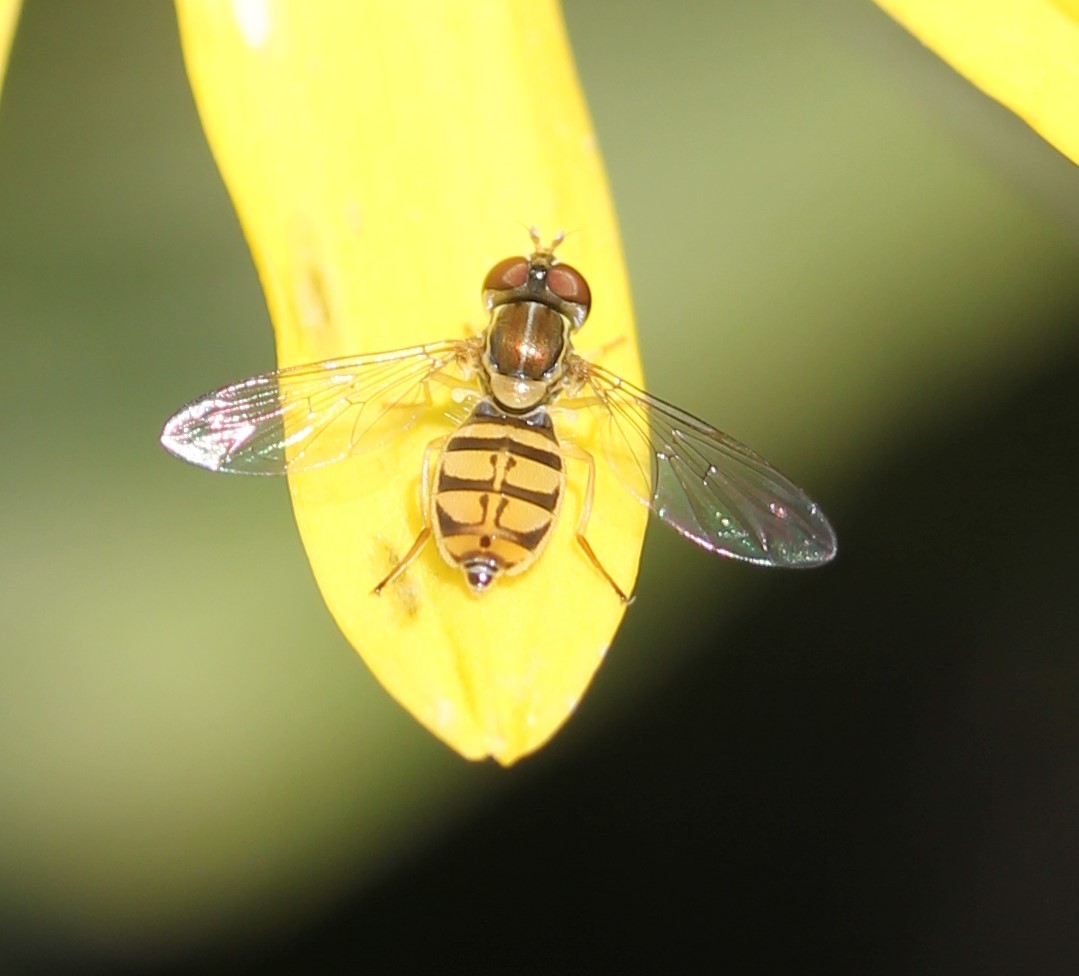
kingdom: Animalia
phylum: Arthropoda
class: Insecta
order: Diptera
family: Syrphidae
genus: Toxomerus
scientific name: Toxomerus marginatus
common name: Syrphid fly
